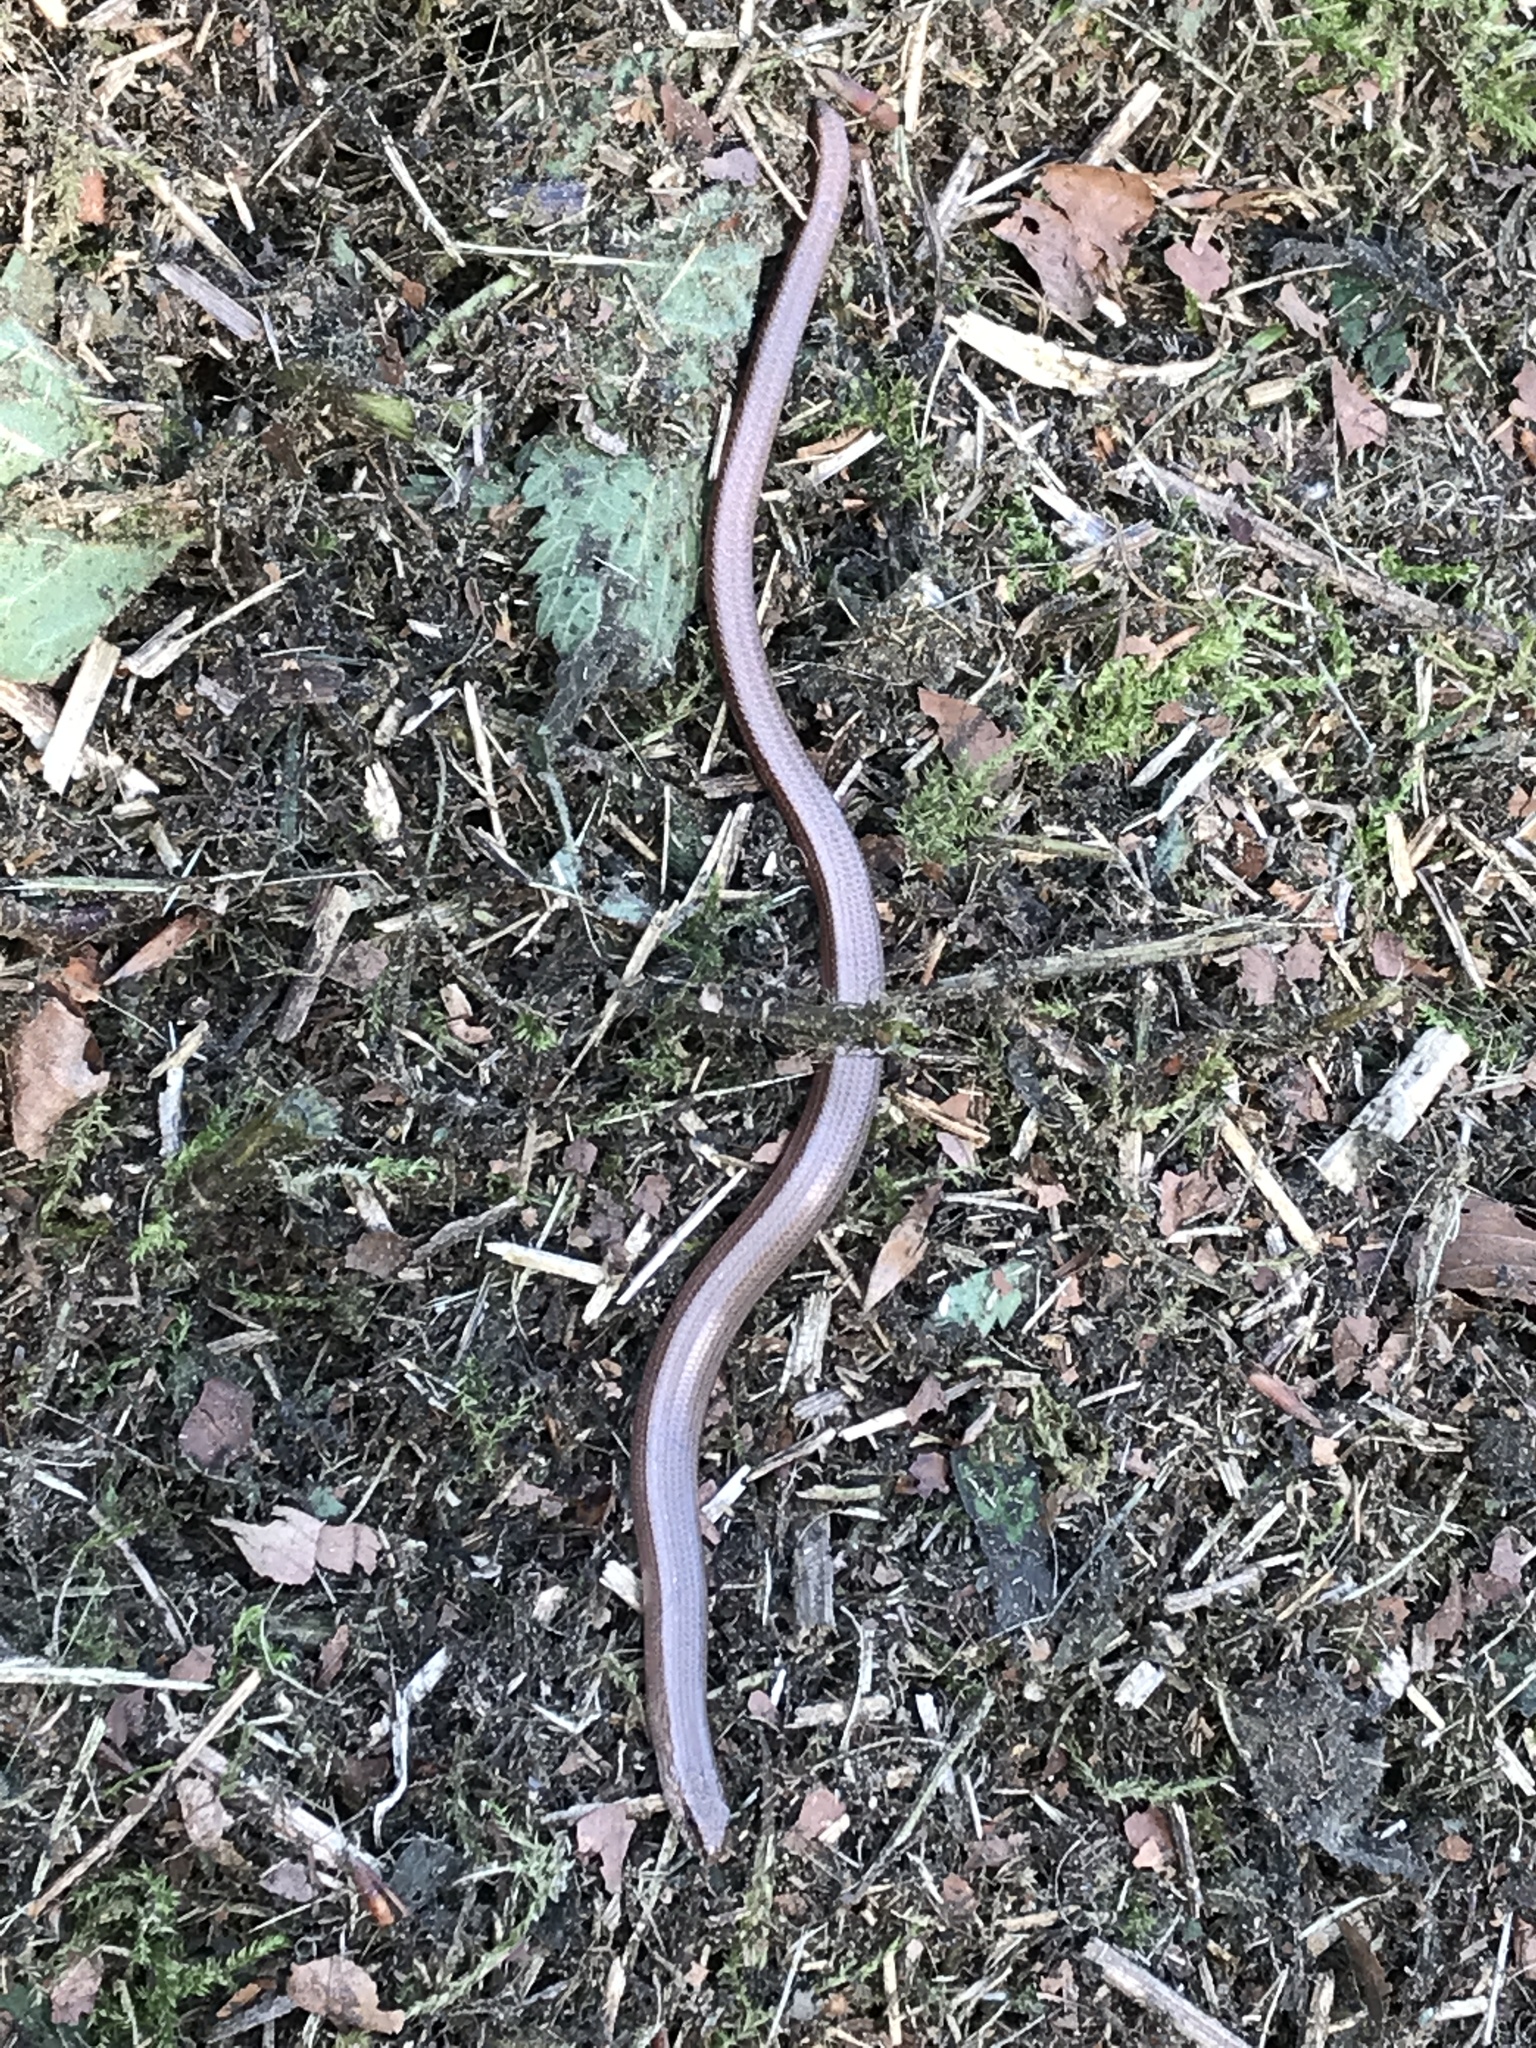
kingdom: Animalia
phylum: Chordata
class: Squamata
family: Anguidae
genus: Anguis
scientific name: Anguis fragilis
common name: Slow worm
